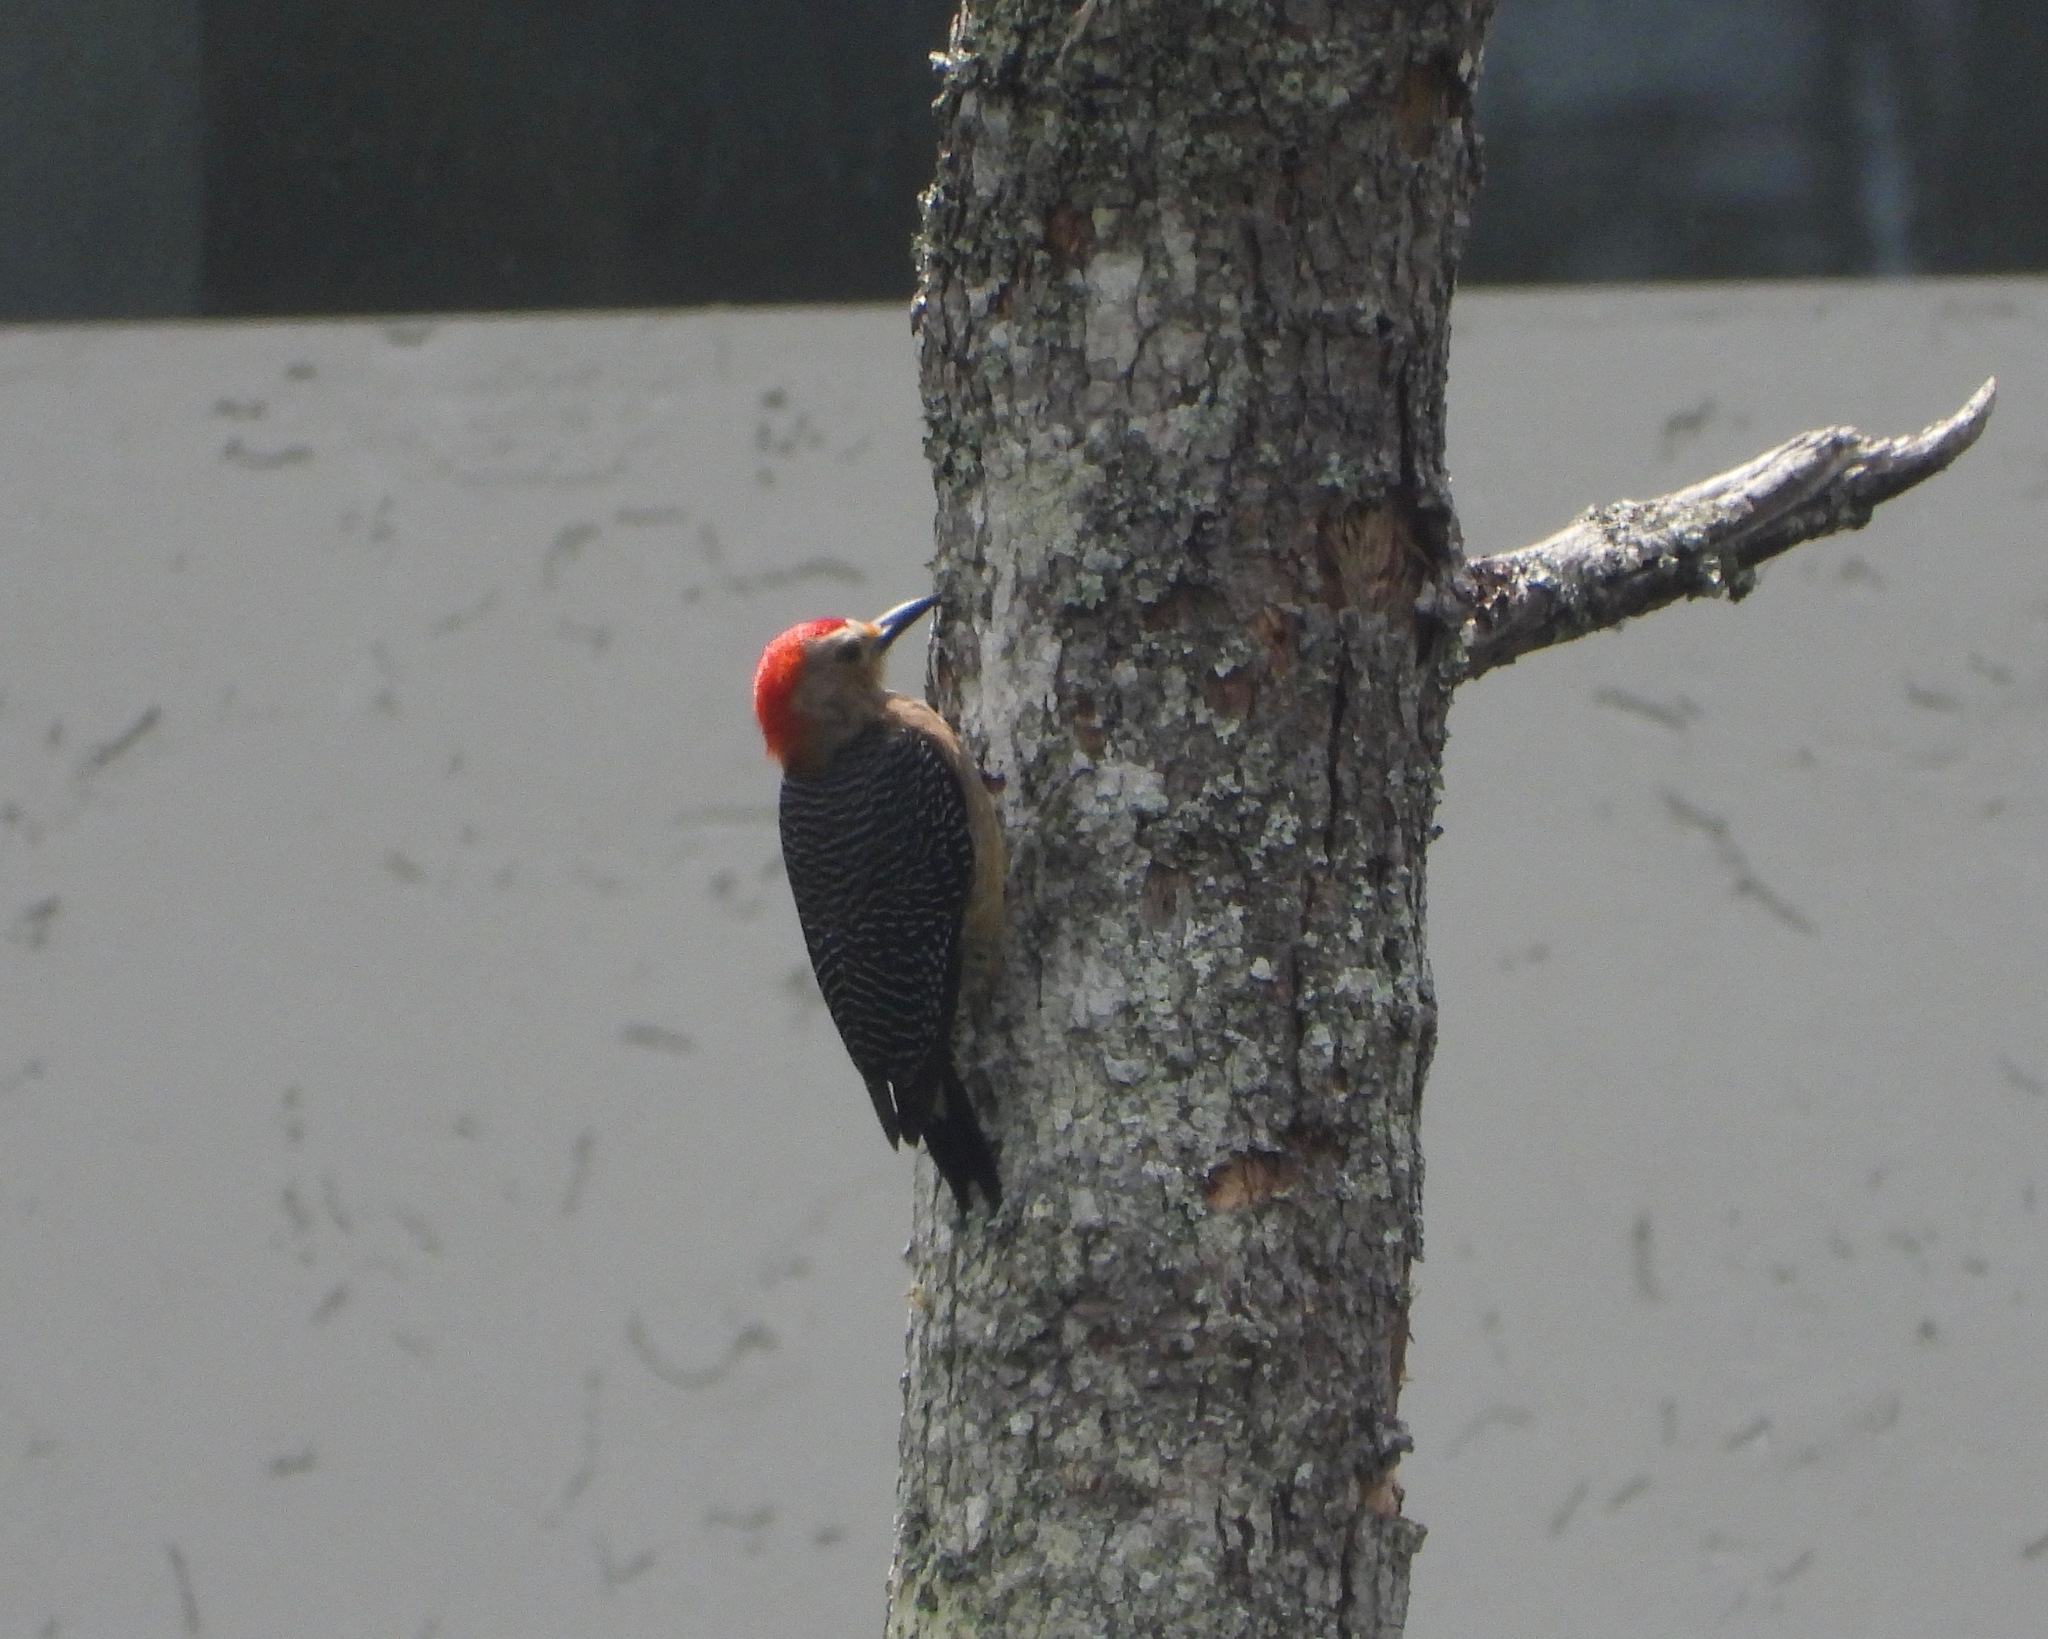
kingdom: Animalia
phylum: Chordata
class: Aves
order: Piciformes
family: Picidae
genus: Melanerpes
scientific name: Melanerpes santacruzi
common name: Velasquez's woodpecker
